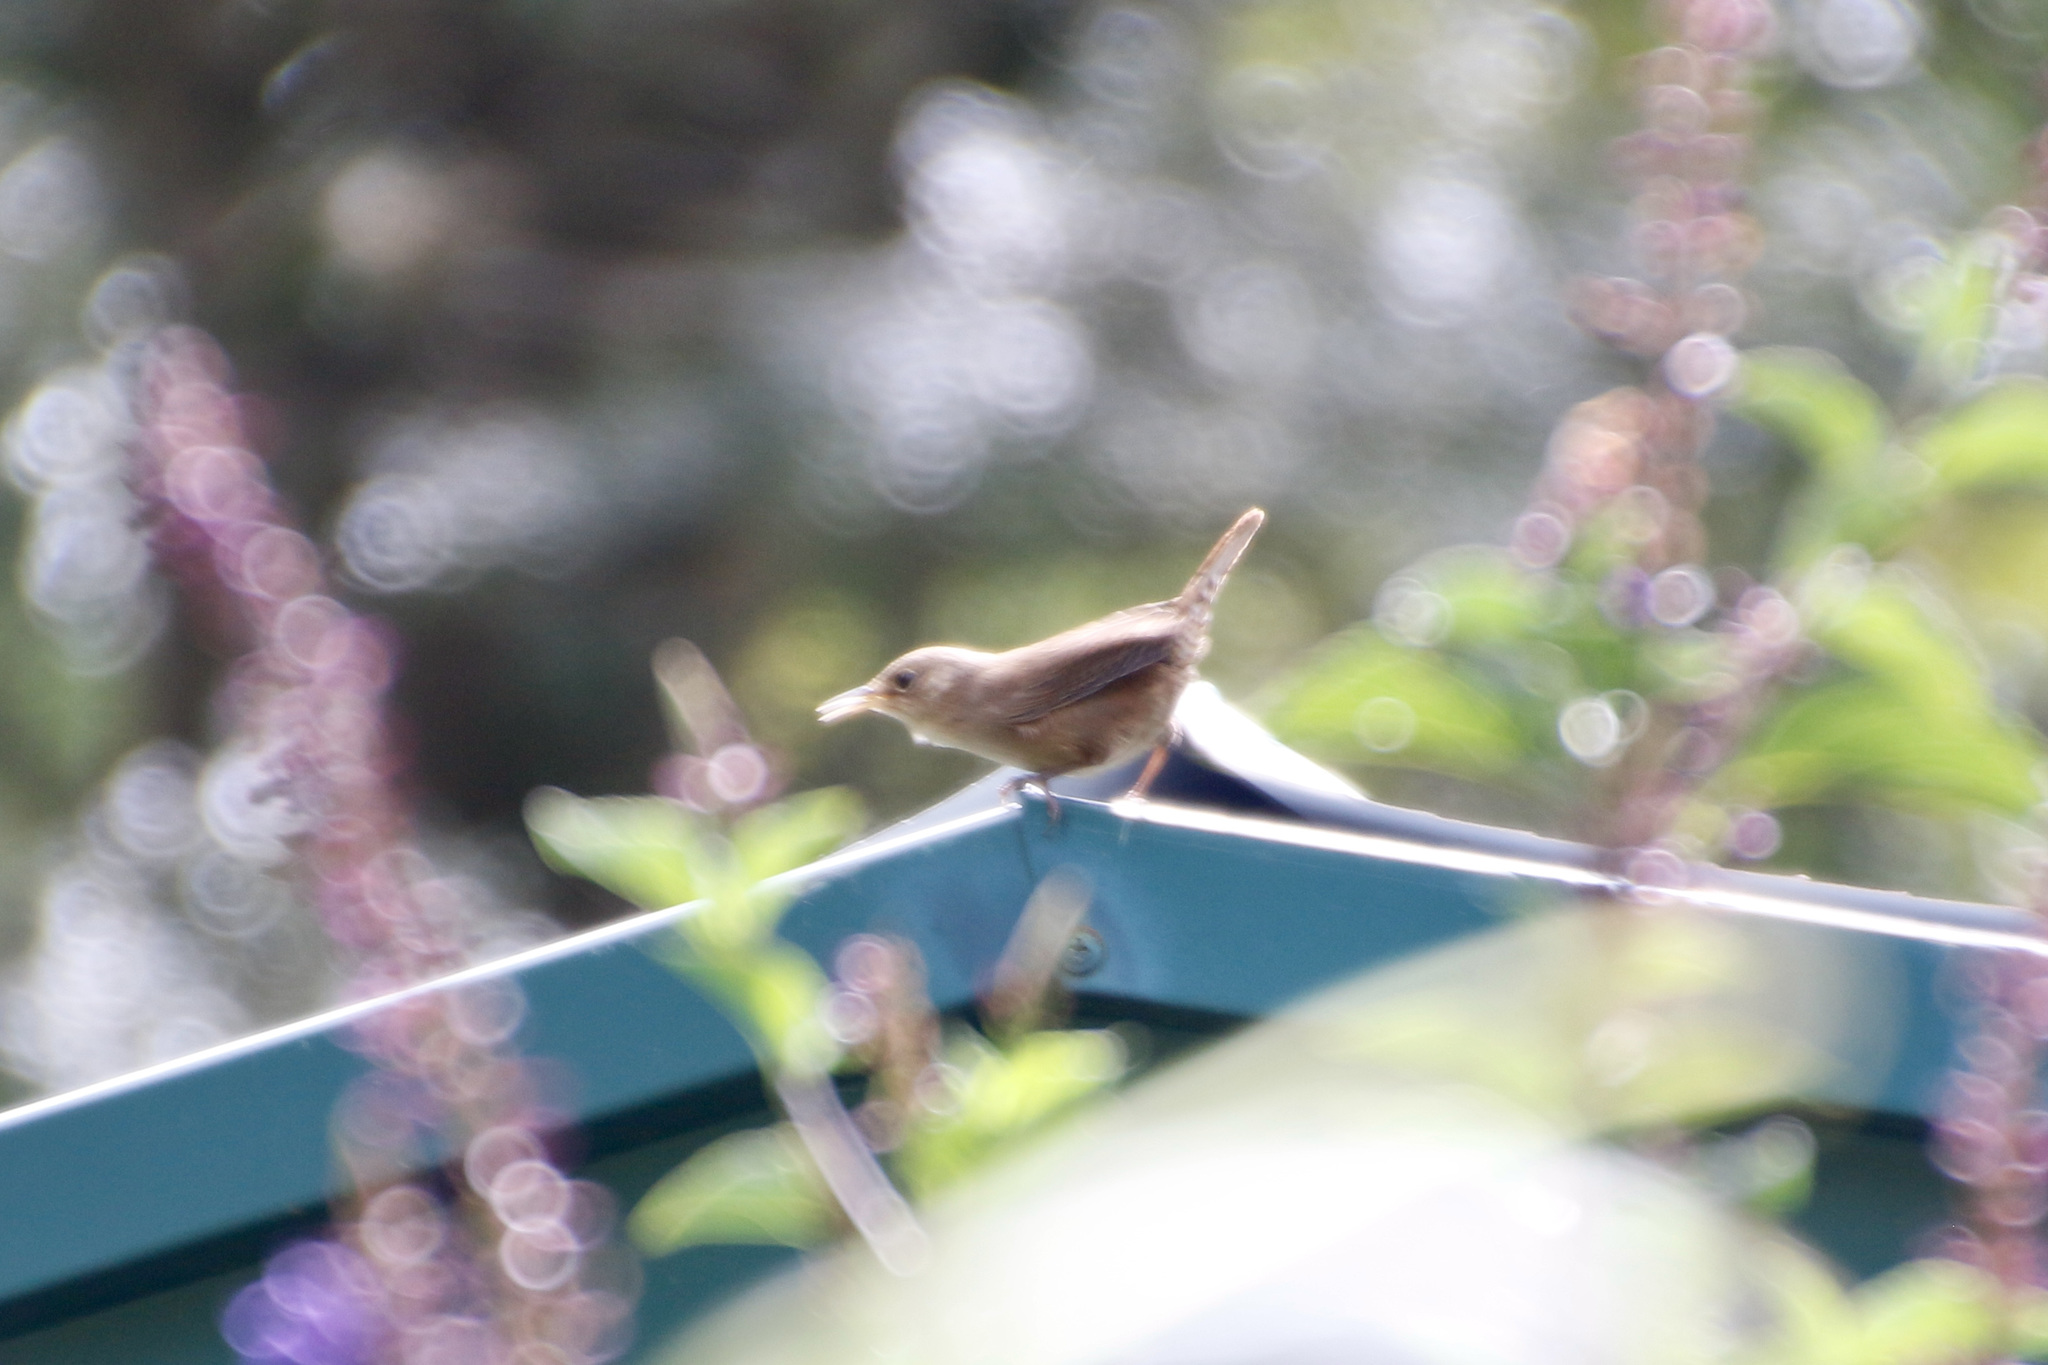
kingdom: Animalia
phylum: Chordata
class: Aves
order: Passeriformes
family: Troglodytidae
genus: Troglodytes
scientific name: Troglodytes aedon
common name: House wren
